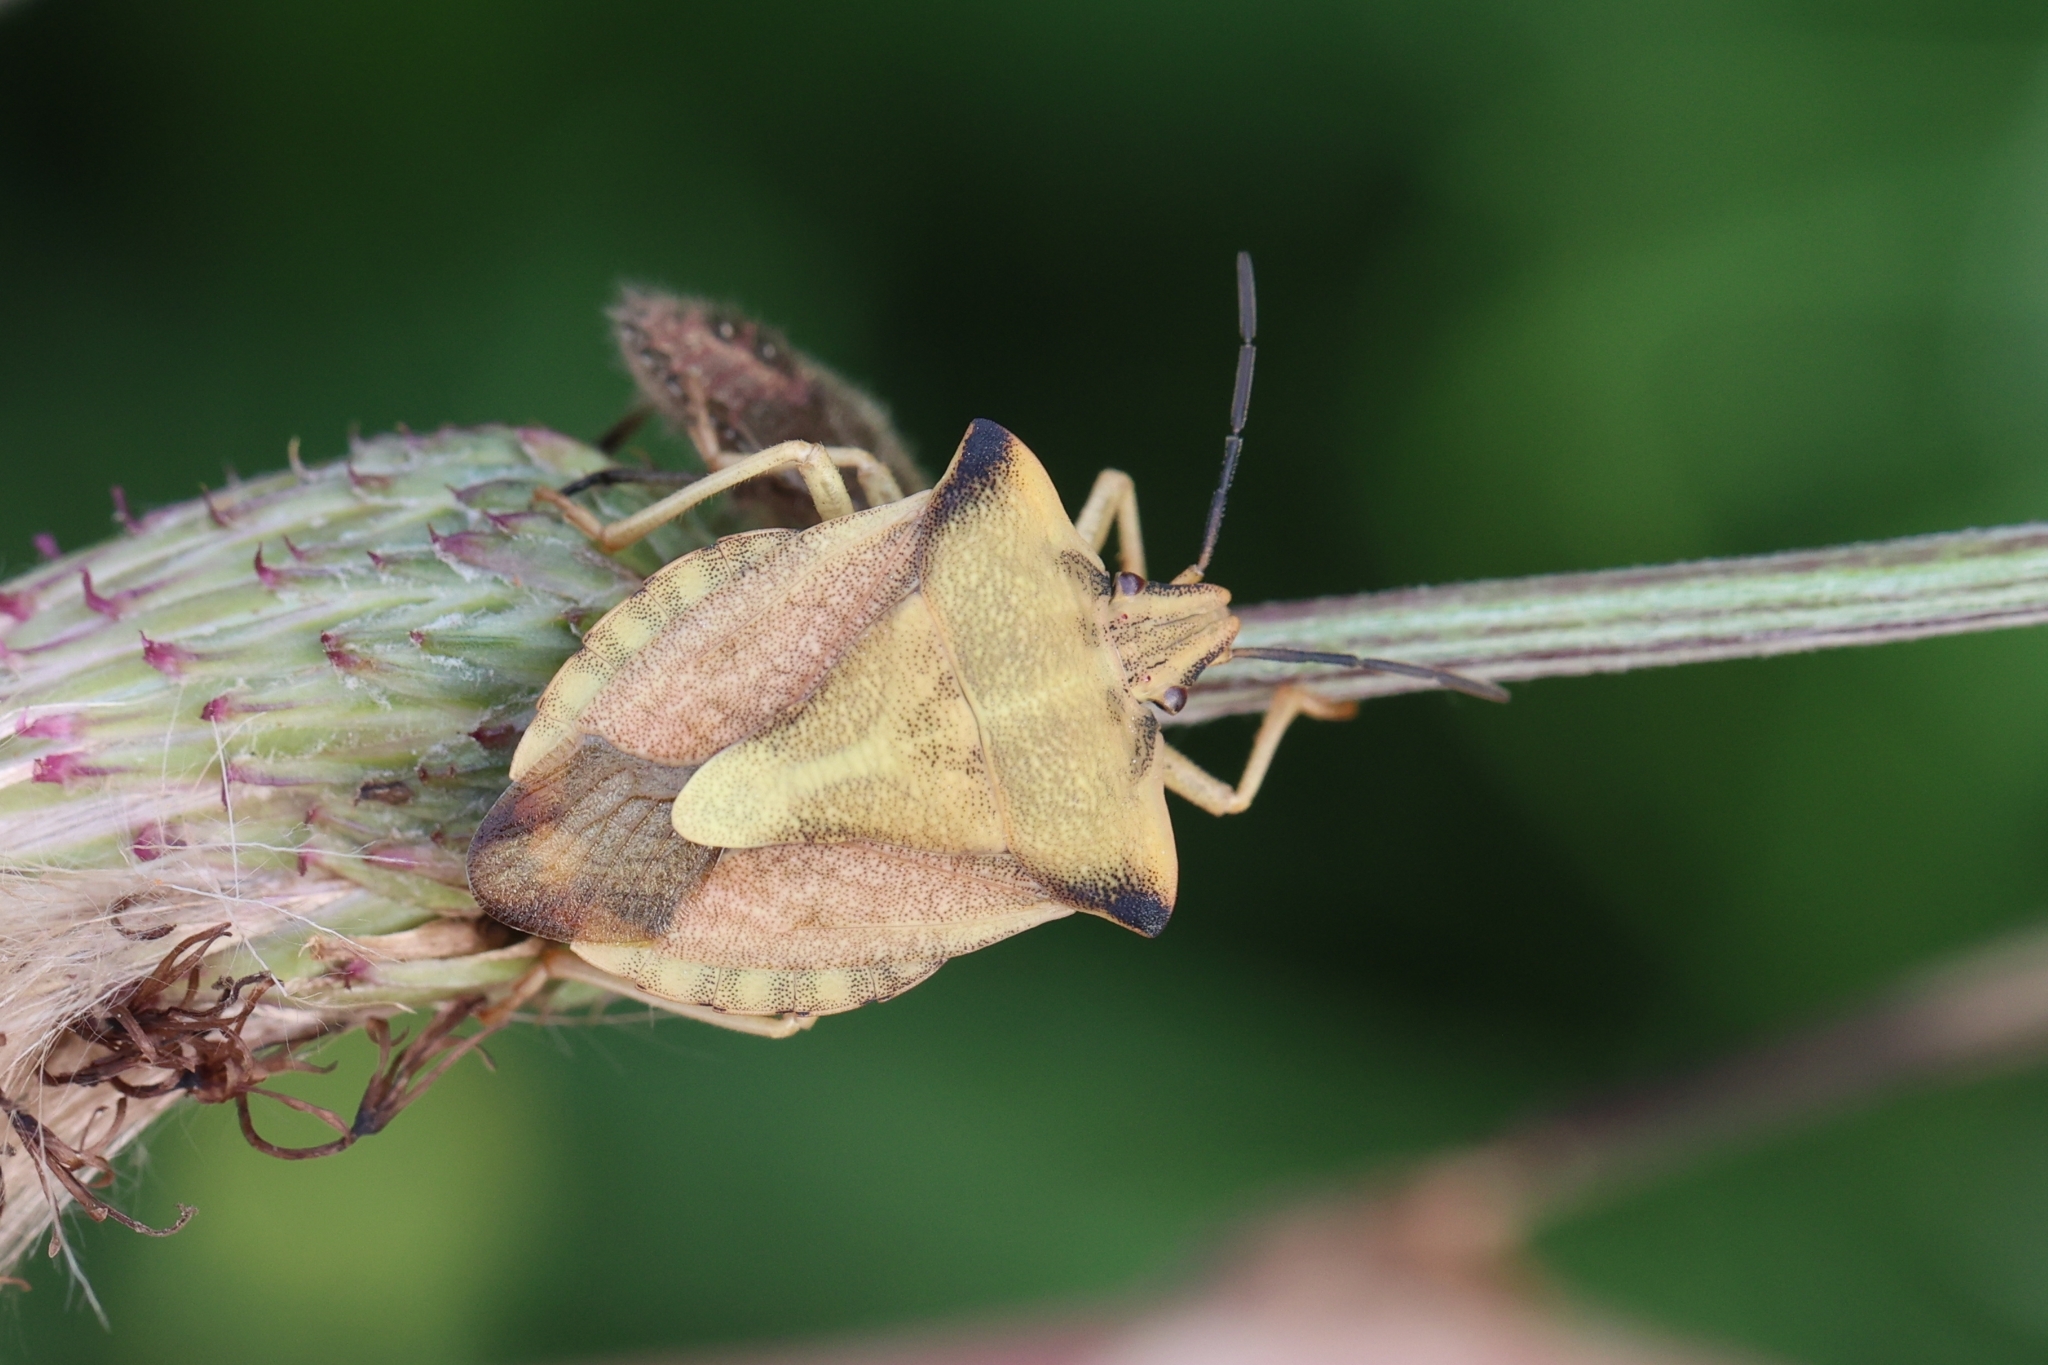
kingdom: Animalia
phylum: Arthropoda
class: Insecta
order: Hemiptera
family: Pentatomidae
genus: Carpocoris
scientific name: Carpocoris fuscispinus
